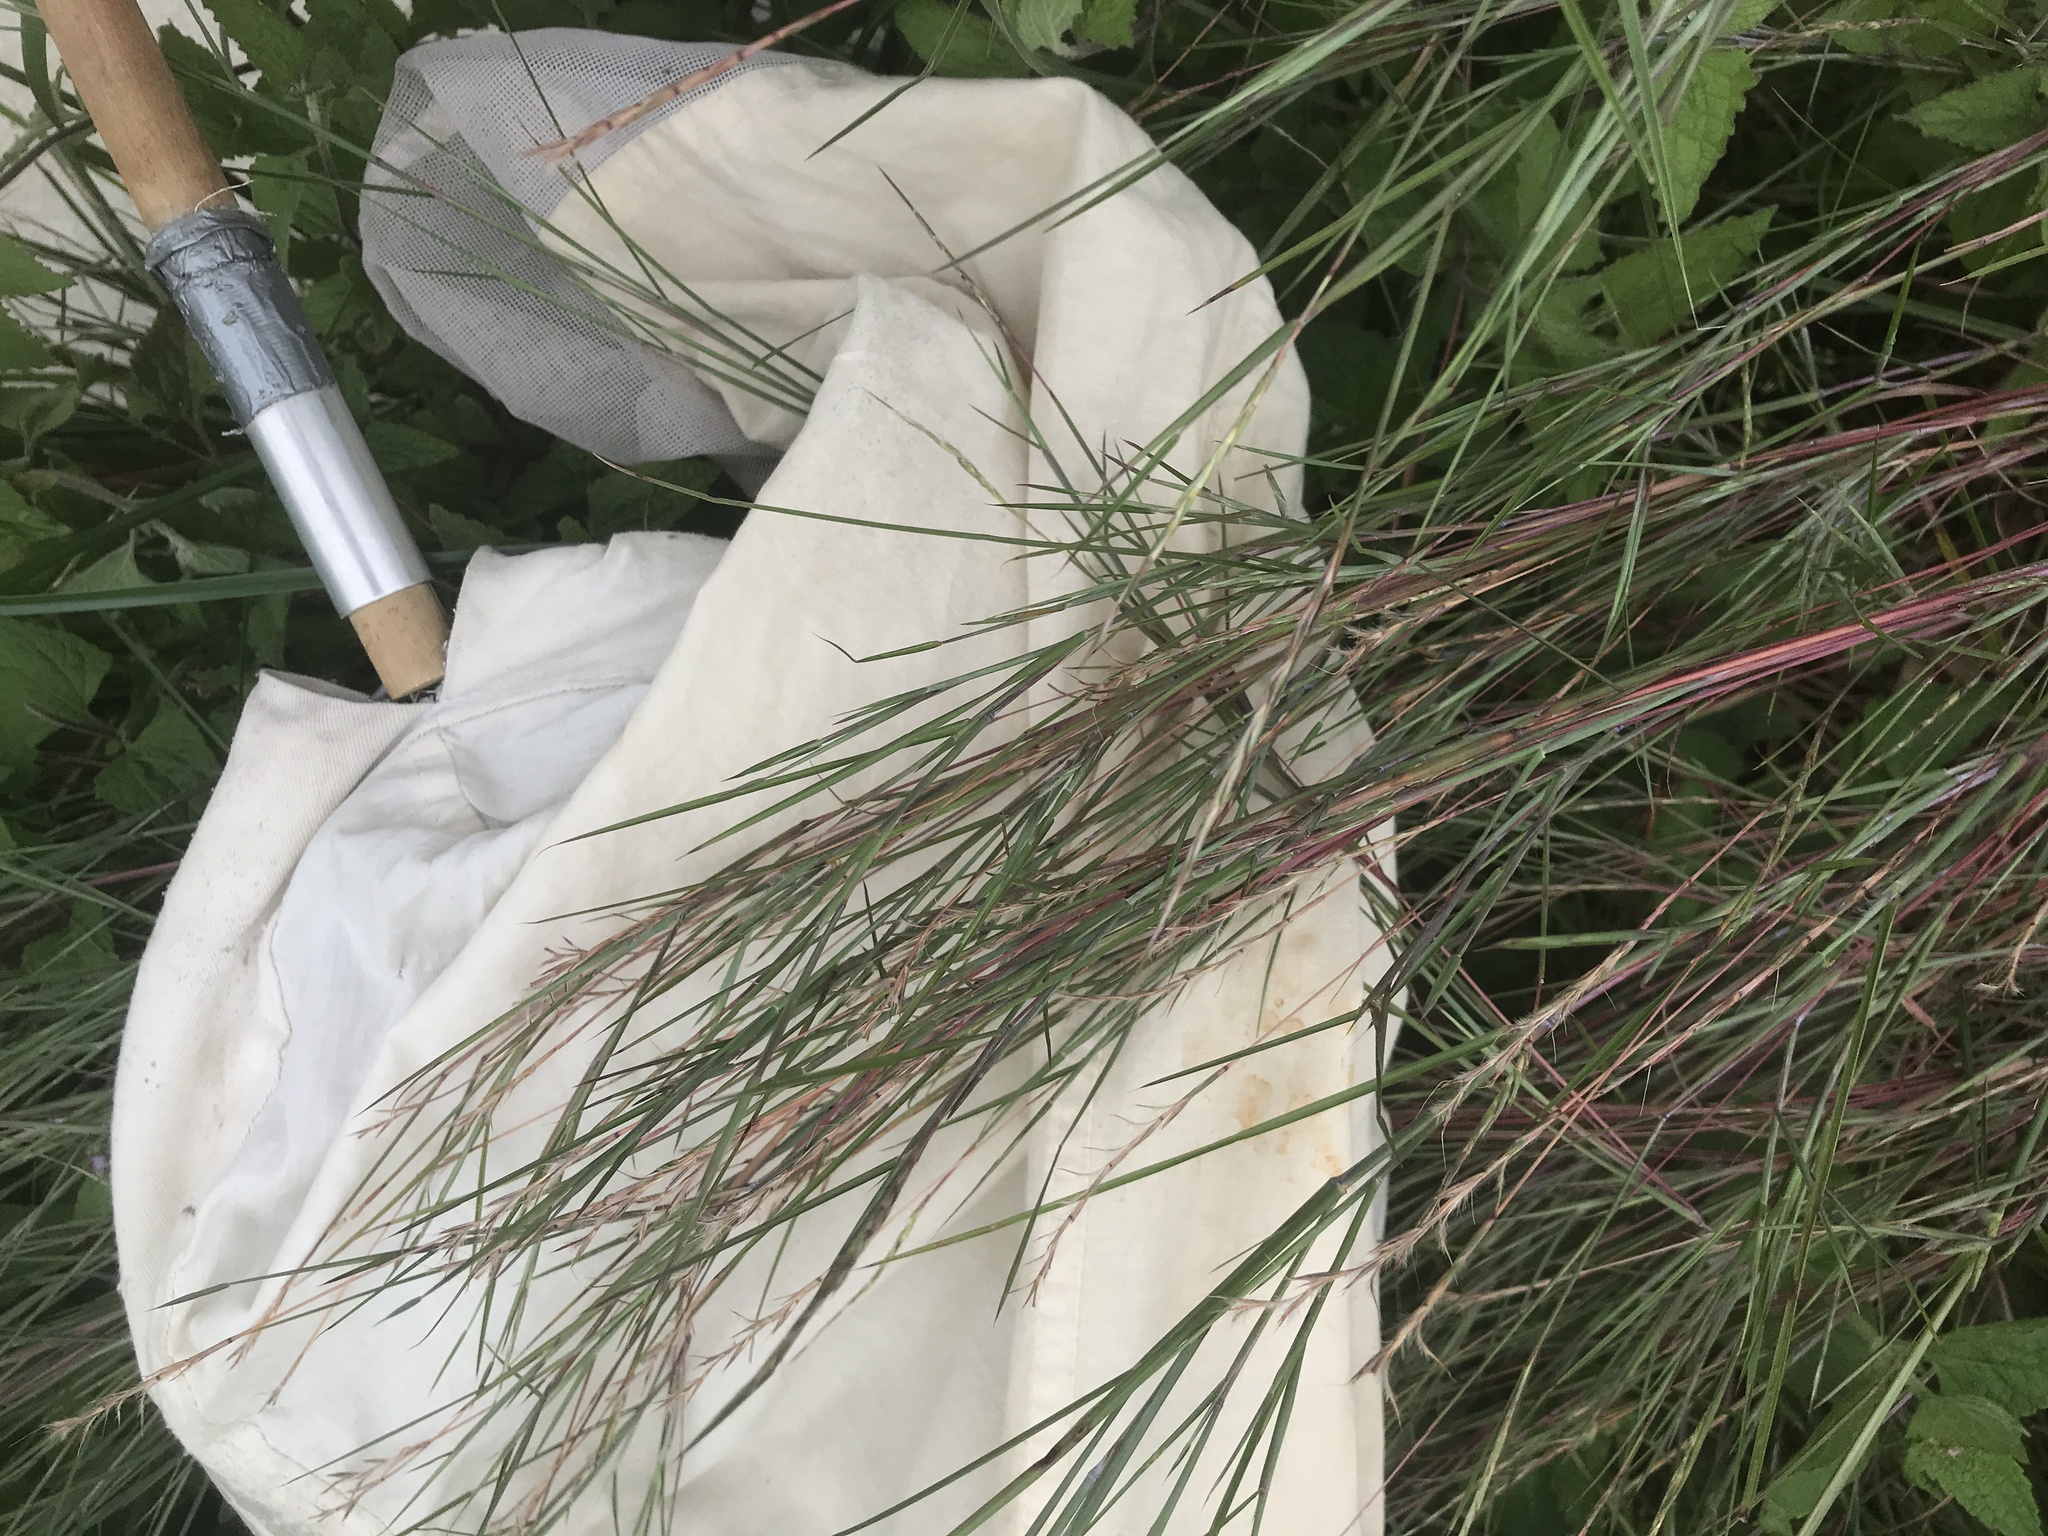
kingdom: Plantae
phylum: Tracheophyta
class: Liliopsida
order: Poales
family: Poaceae
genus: Schizachyrium
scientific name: Schizachyrium scoparium
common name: Little bluestem
